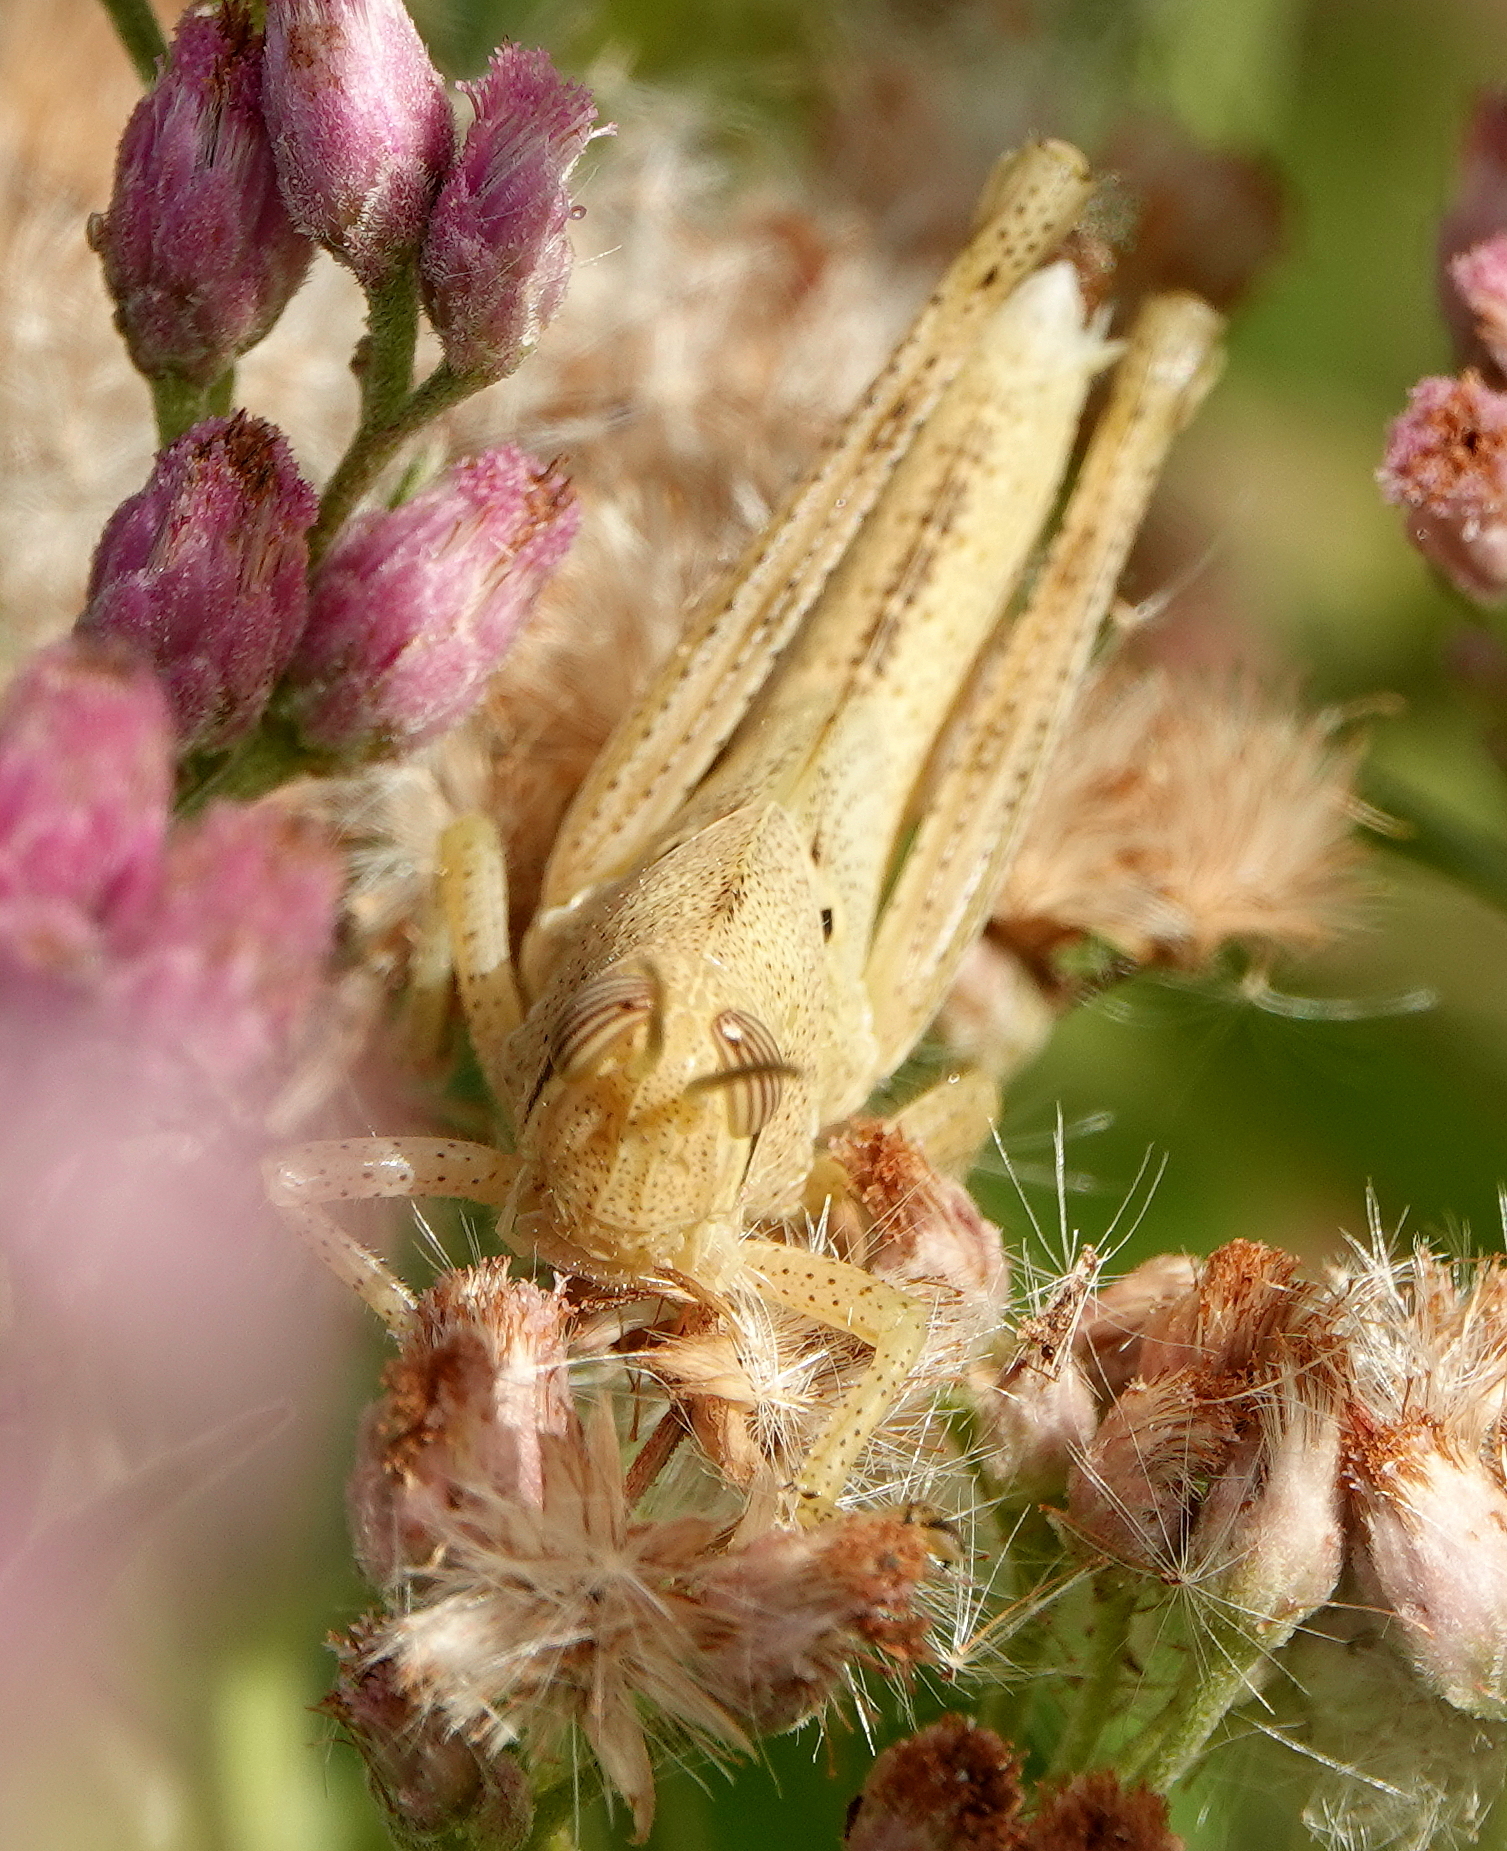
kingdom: Animalia
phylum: Arthropoda
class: Insecta
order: Orthoptera
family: Acrididae
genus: Schistocerca
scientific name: Schistocerca serialis
